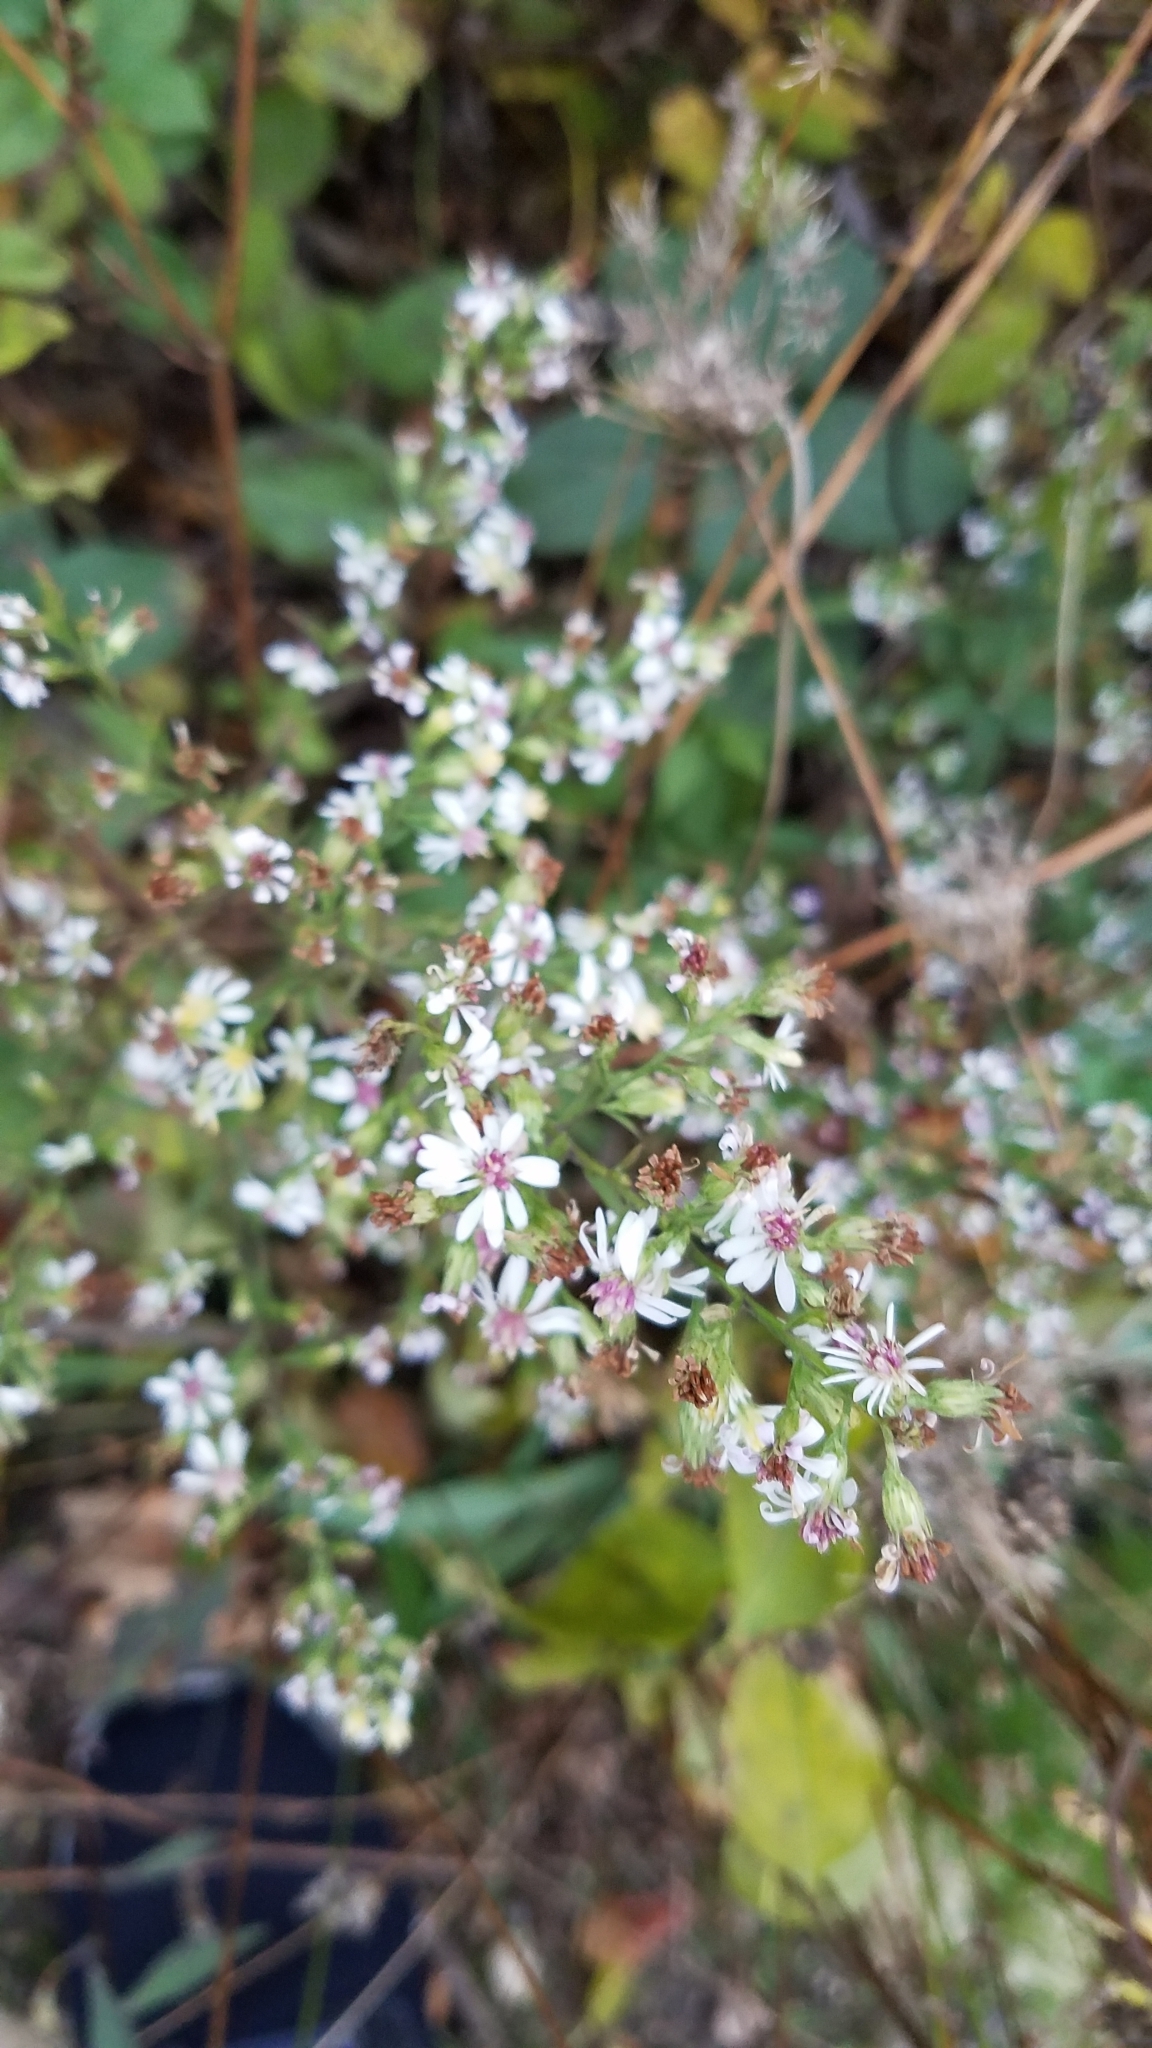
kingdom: Plantae
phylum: Tracheophyta
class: Magnoliopsida
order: Asterales
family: Asteraceae
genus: Symphyotrichum
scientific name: Symphyotrichum urophyllum
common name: Arrow-leaved aster
